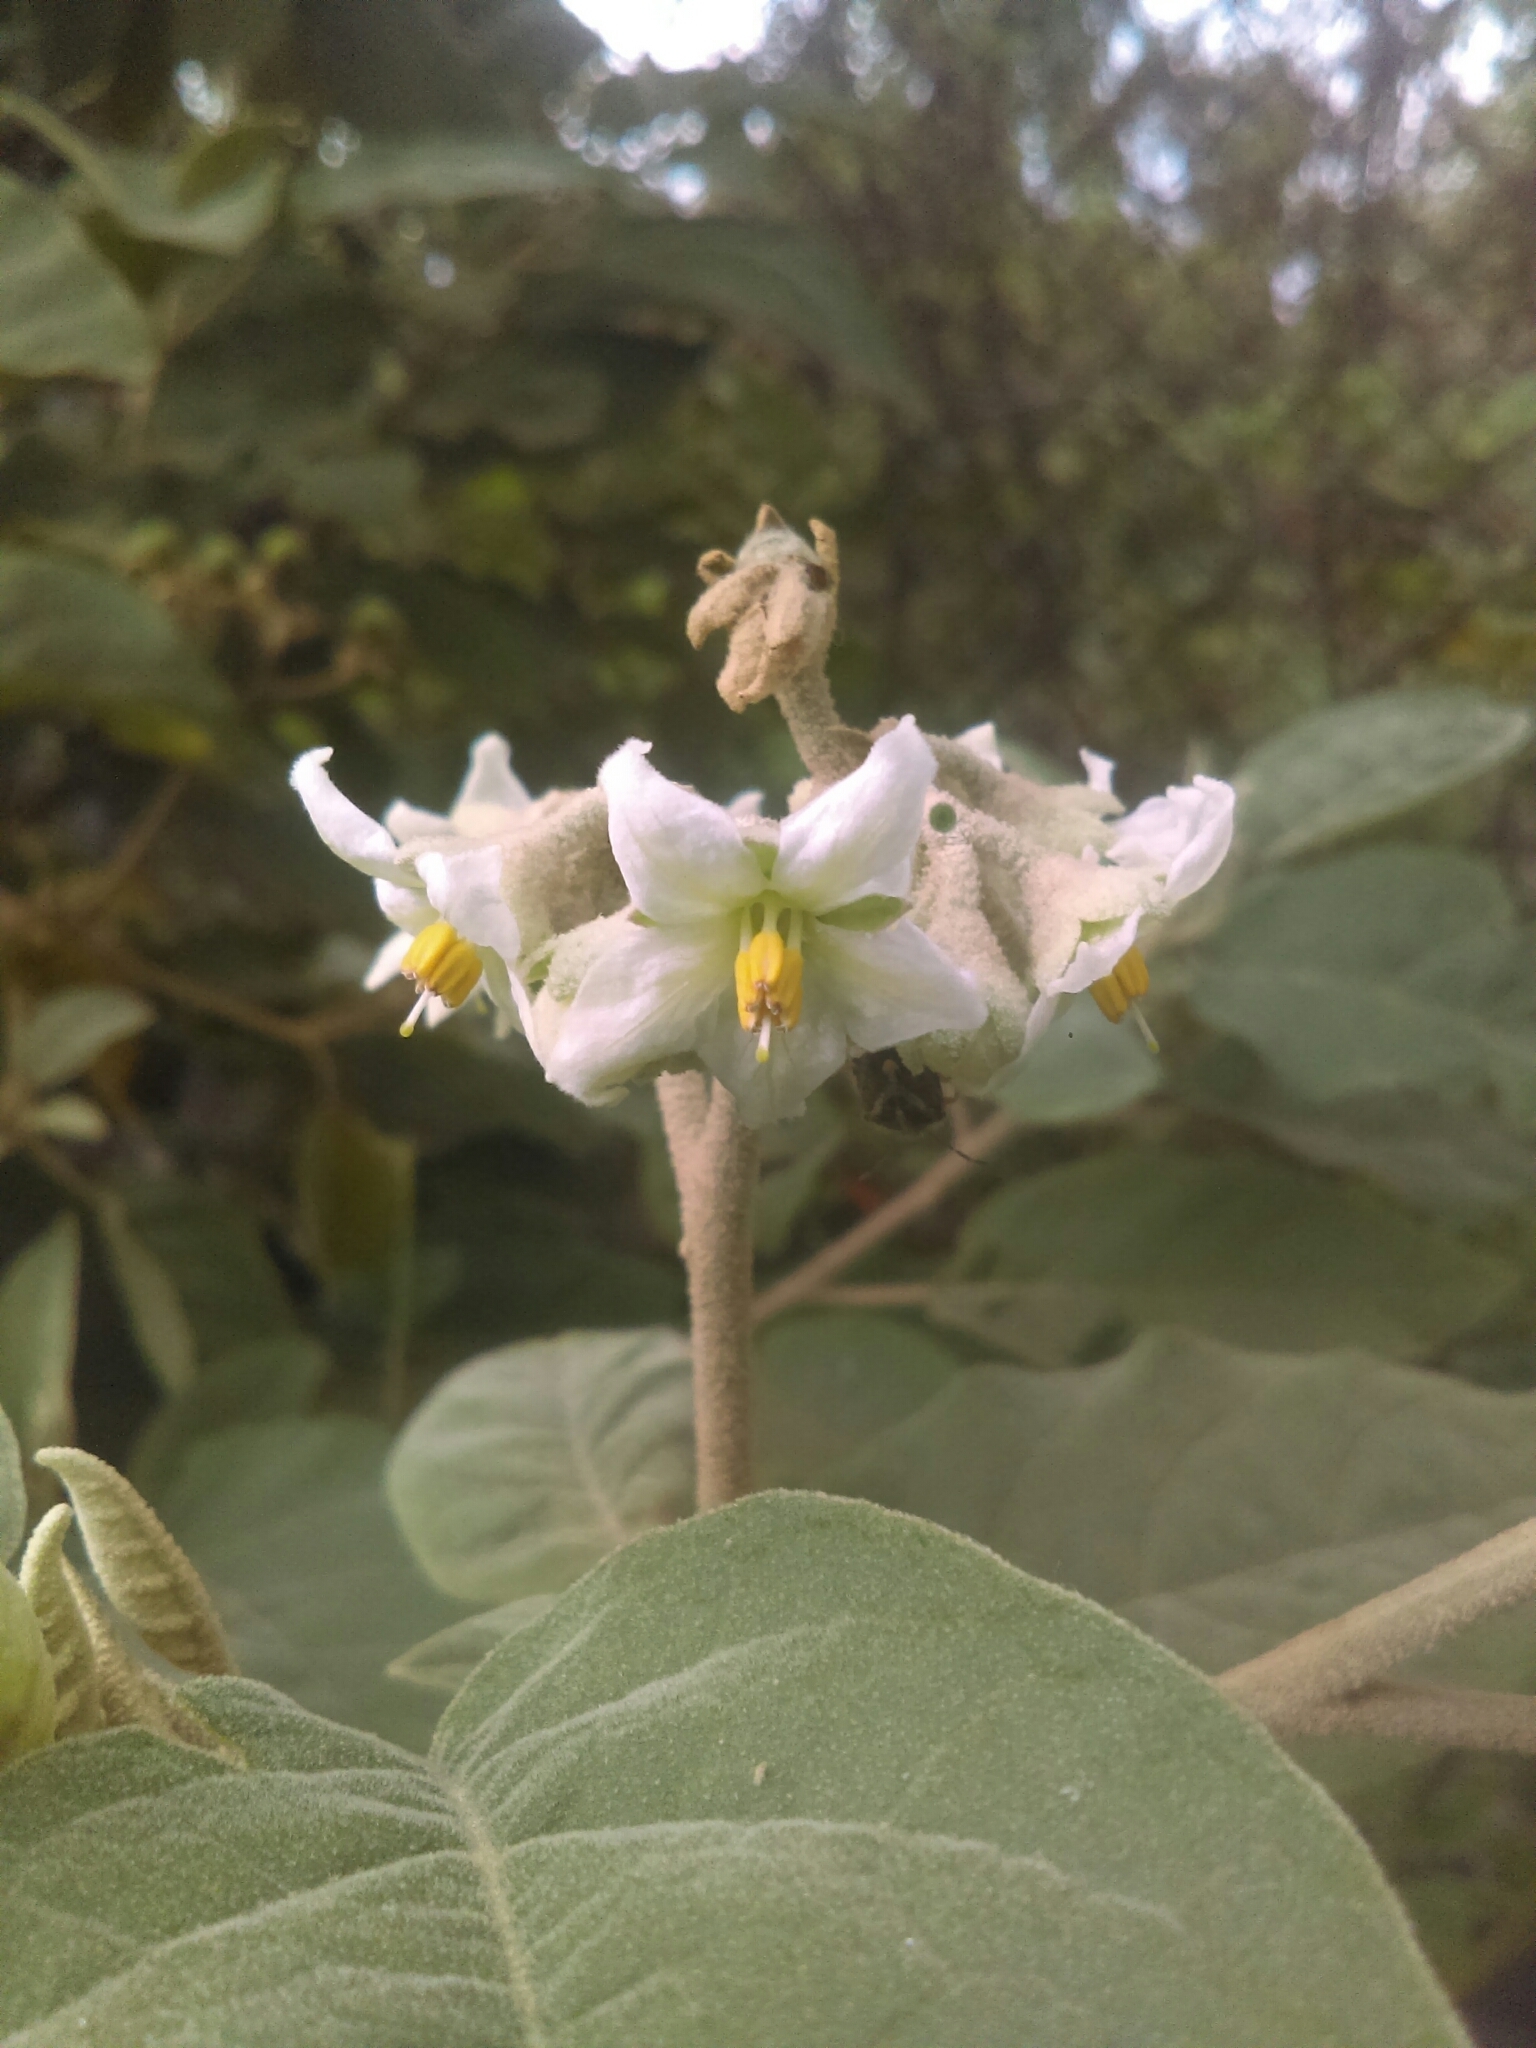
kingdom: Plantae
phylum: Tracheophyta
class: Magnoliopsida
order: Solanales
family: Solanaceae
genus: Solanum
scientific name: Solanum erianthum
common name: Tobacco-tree
